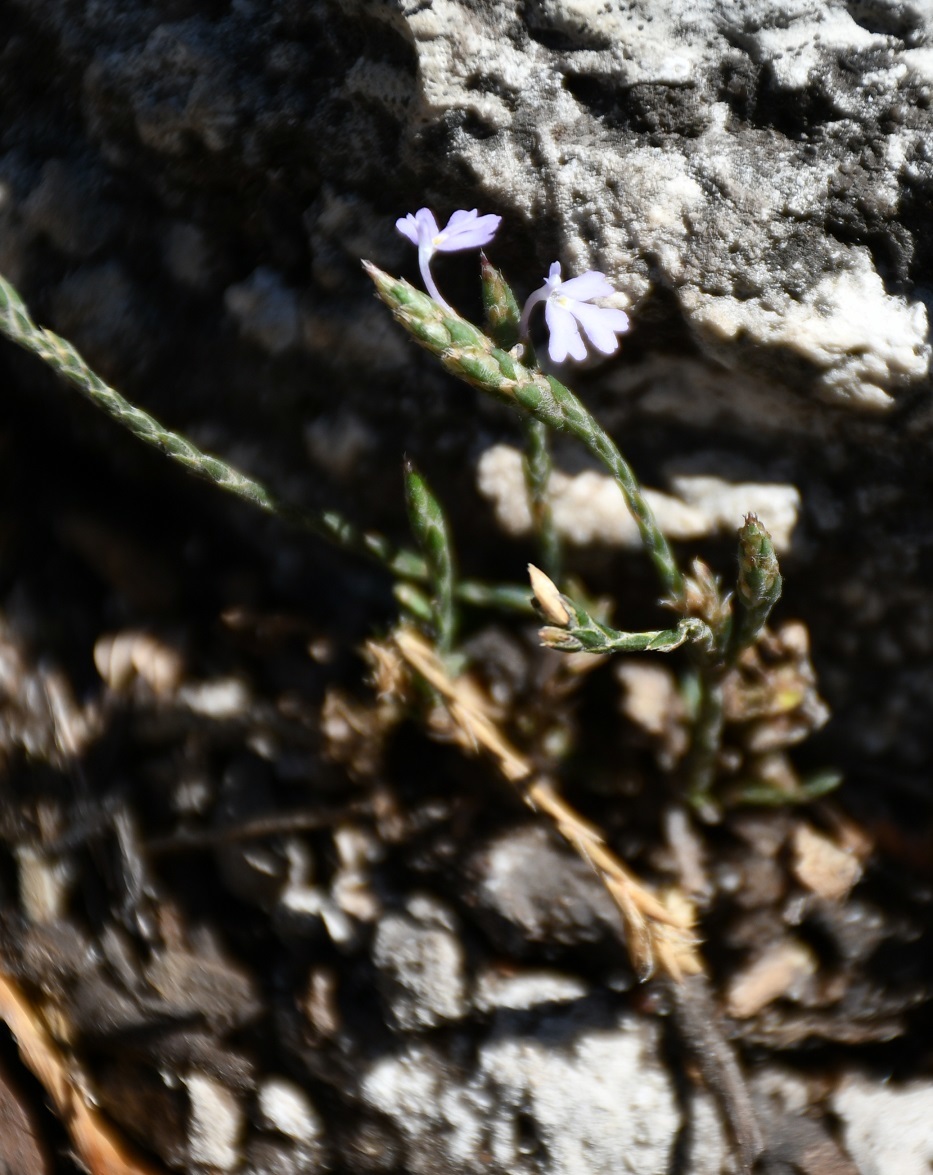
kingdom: Plantae
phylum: Tracheophyta
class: Magnoliopsida
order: Lamiales
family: Acanthaceae
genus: Elytraria
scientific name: Elytraria imbricata
